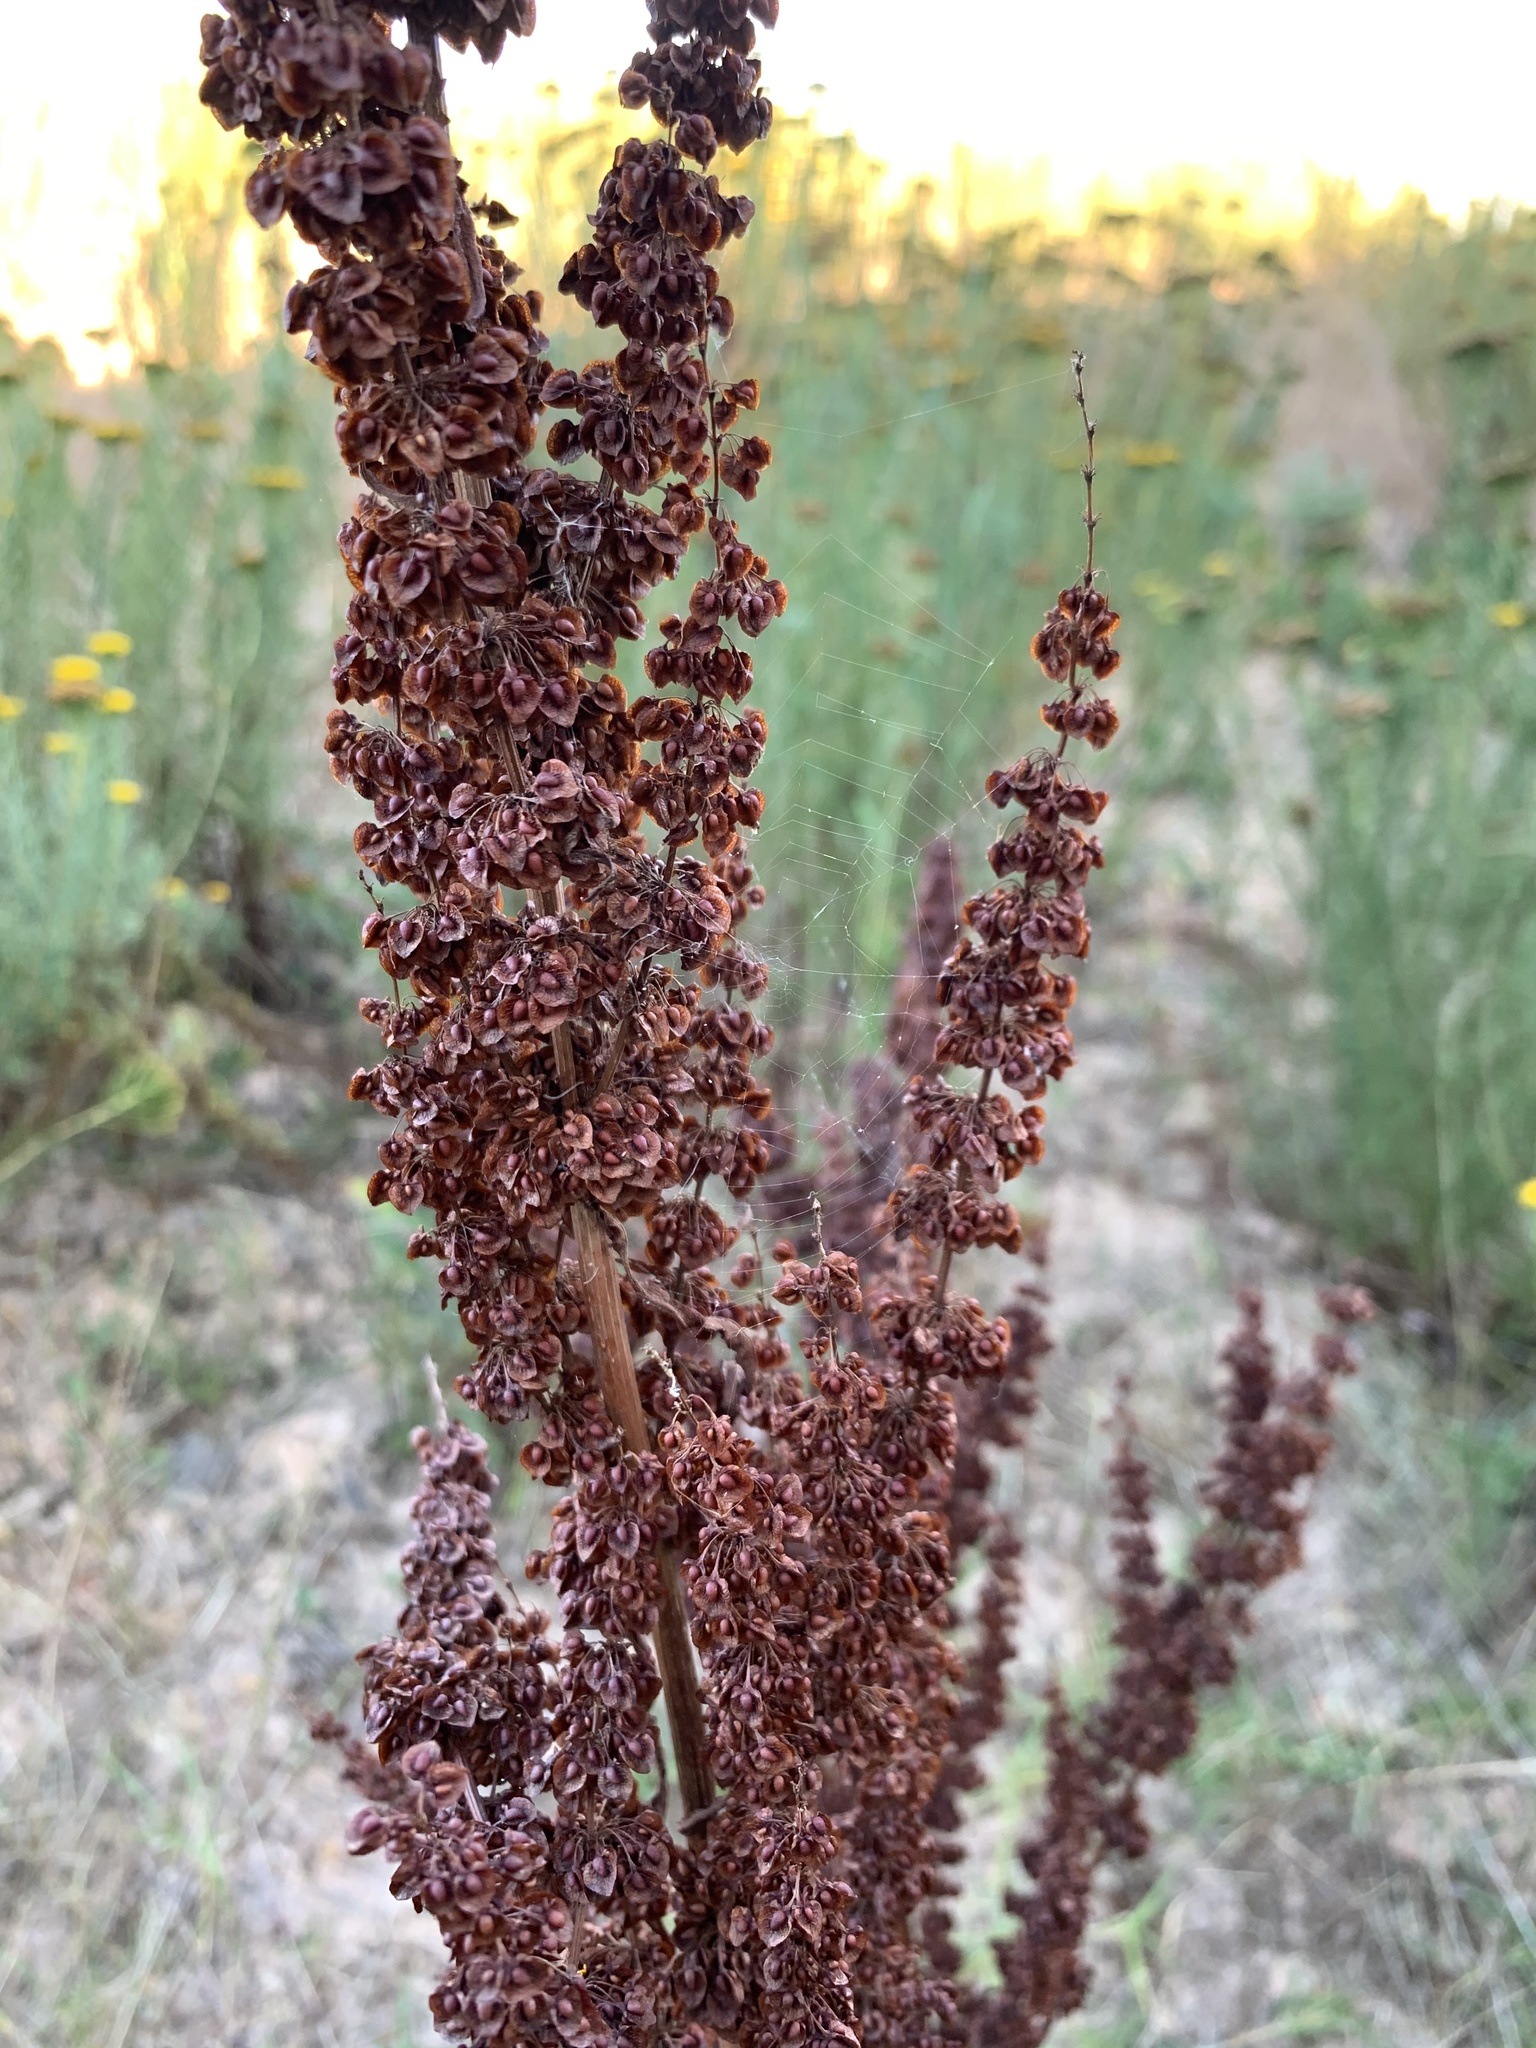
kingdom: Plantae
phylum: Tracheophyta
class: Magnoliopsida
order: Caryophyllales
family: Polygonaceae
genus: Rumex
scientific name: Rumex crispus
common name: Curled dock
